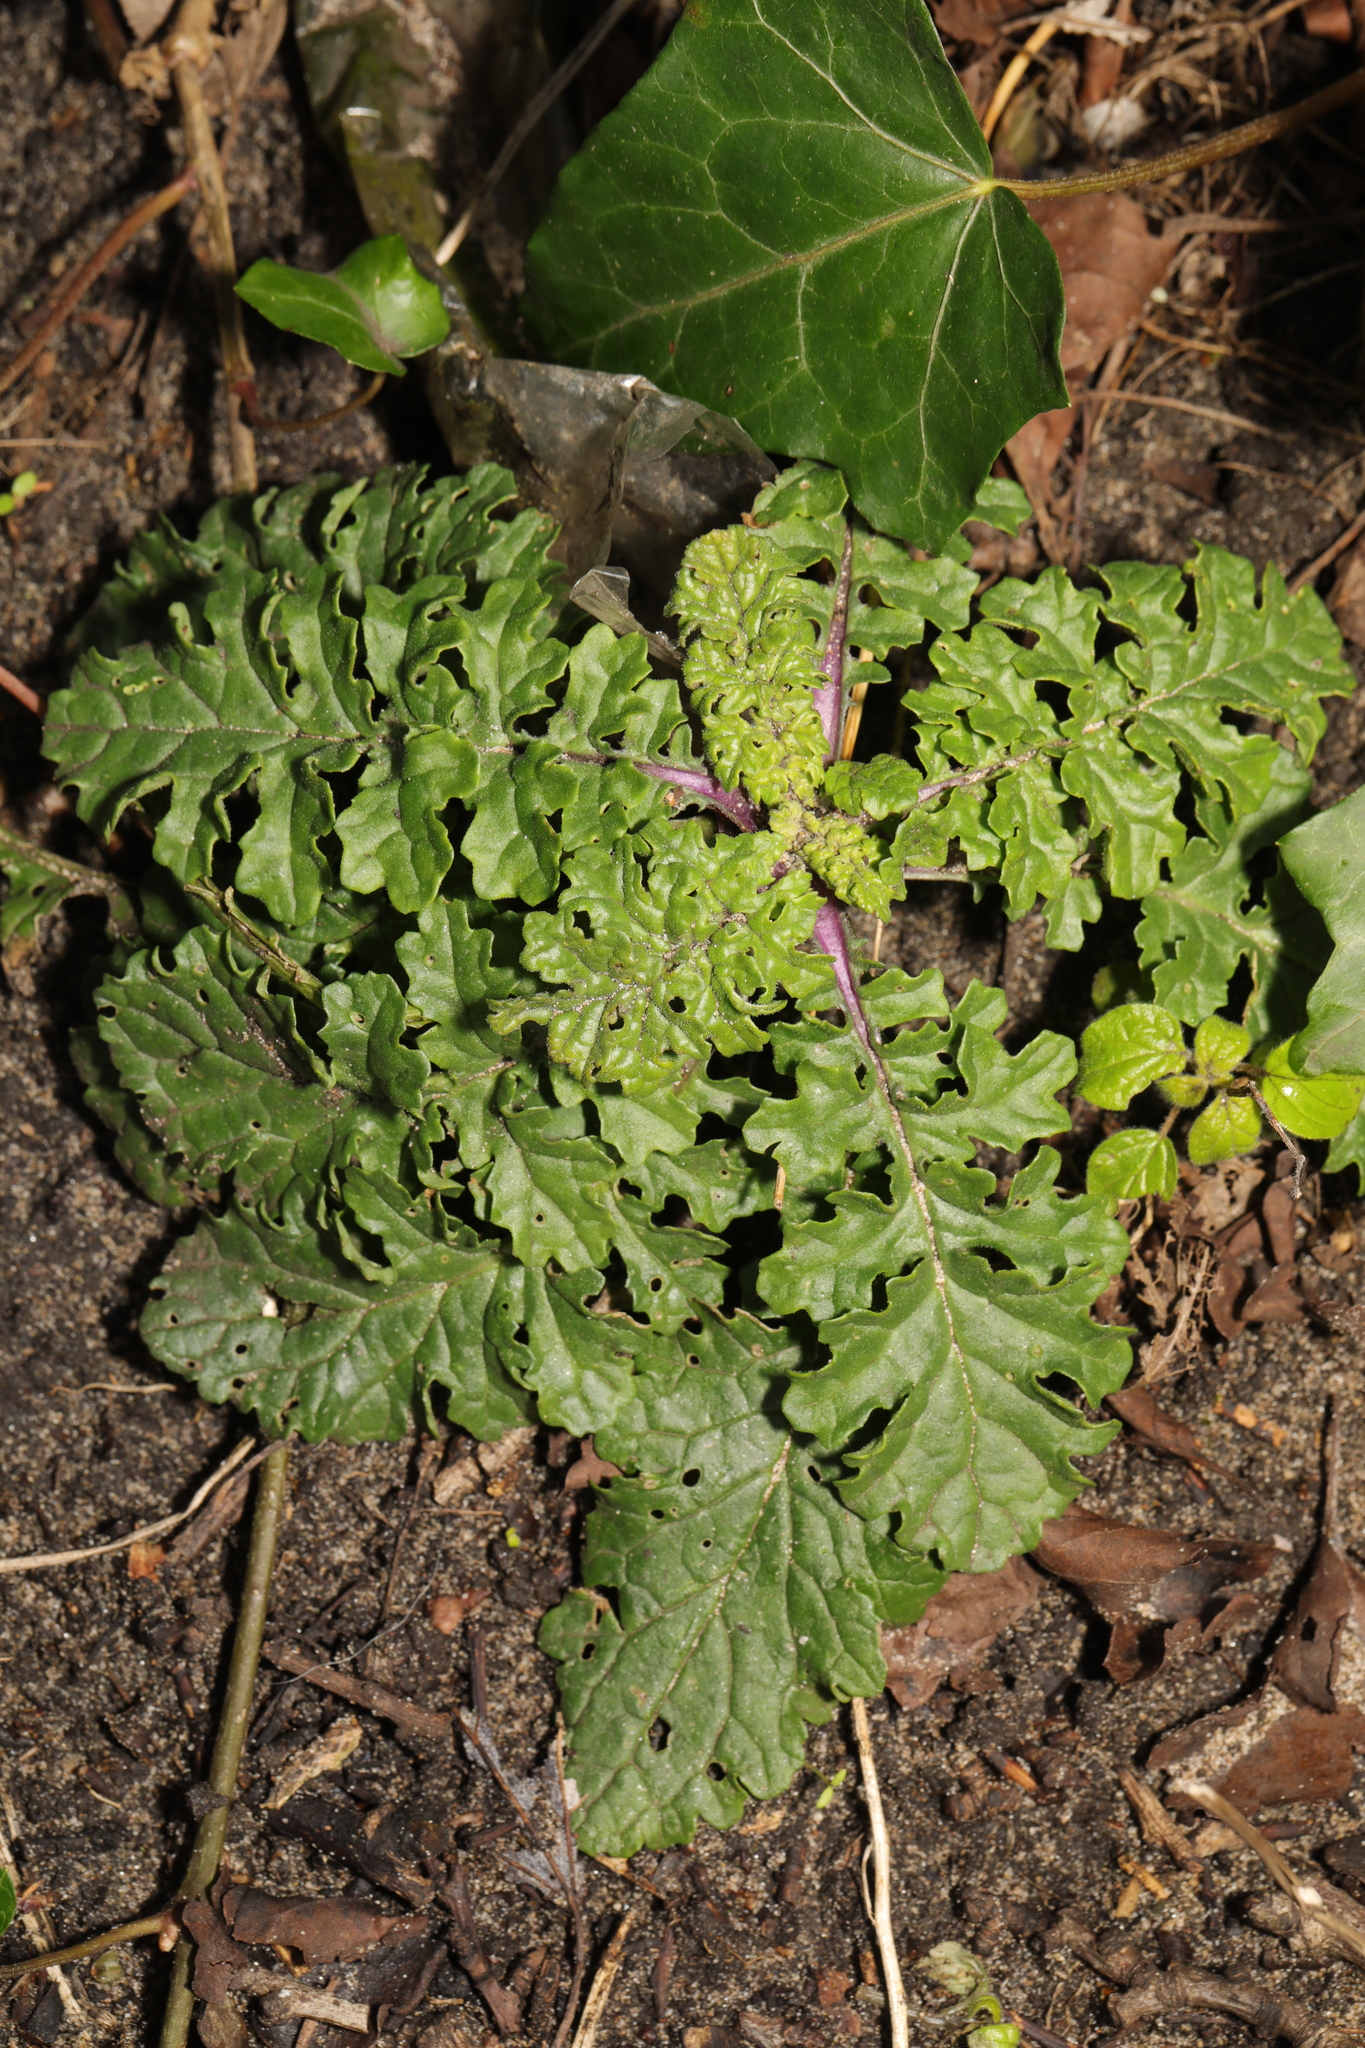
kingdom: Plantae
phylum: Tracheophyta
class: Magnoliopsida
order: Asterales
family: Asteraceae
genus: Jacobaea
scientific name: Jacobaea vulgaris
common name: Stinking willie
